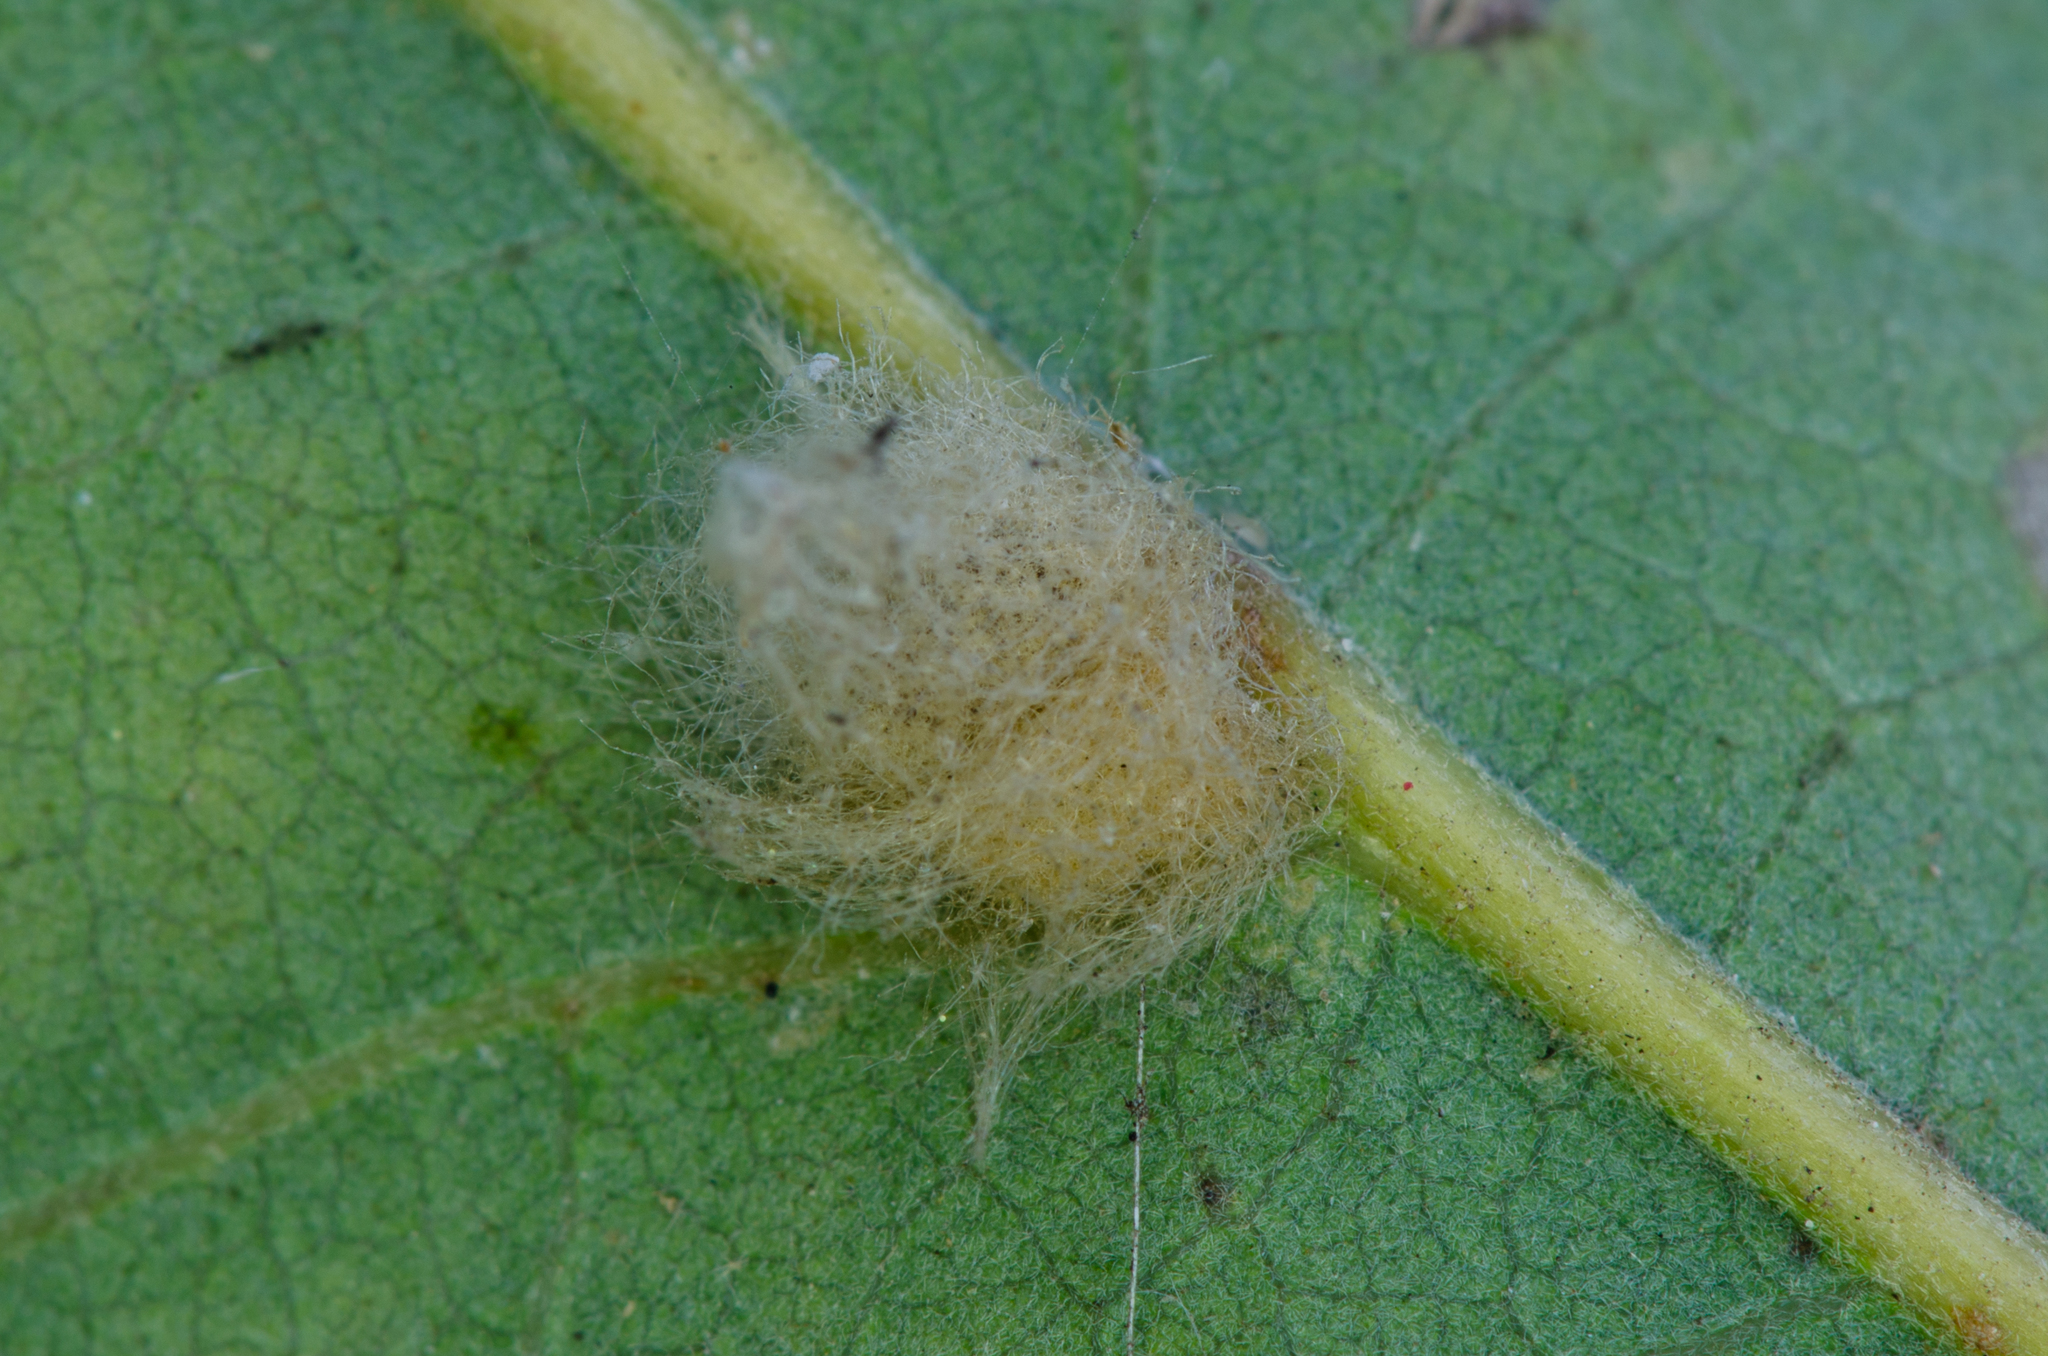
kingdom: Animalia
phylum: Arthropoda
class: Insecta
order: Hymenoptera
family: Cynipidae
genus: Andricus
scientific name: Andricus Druon fullawayi
